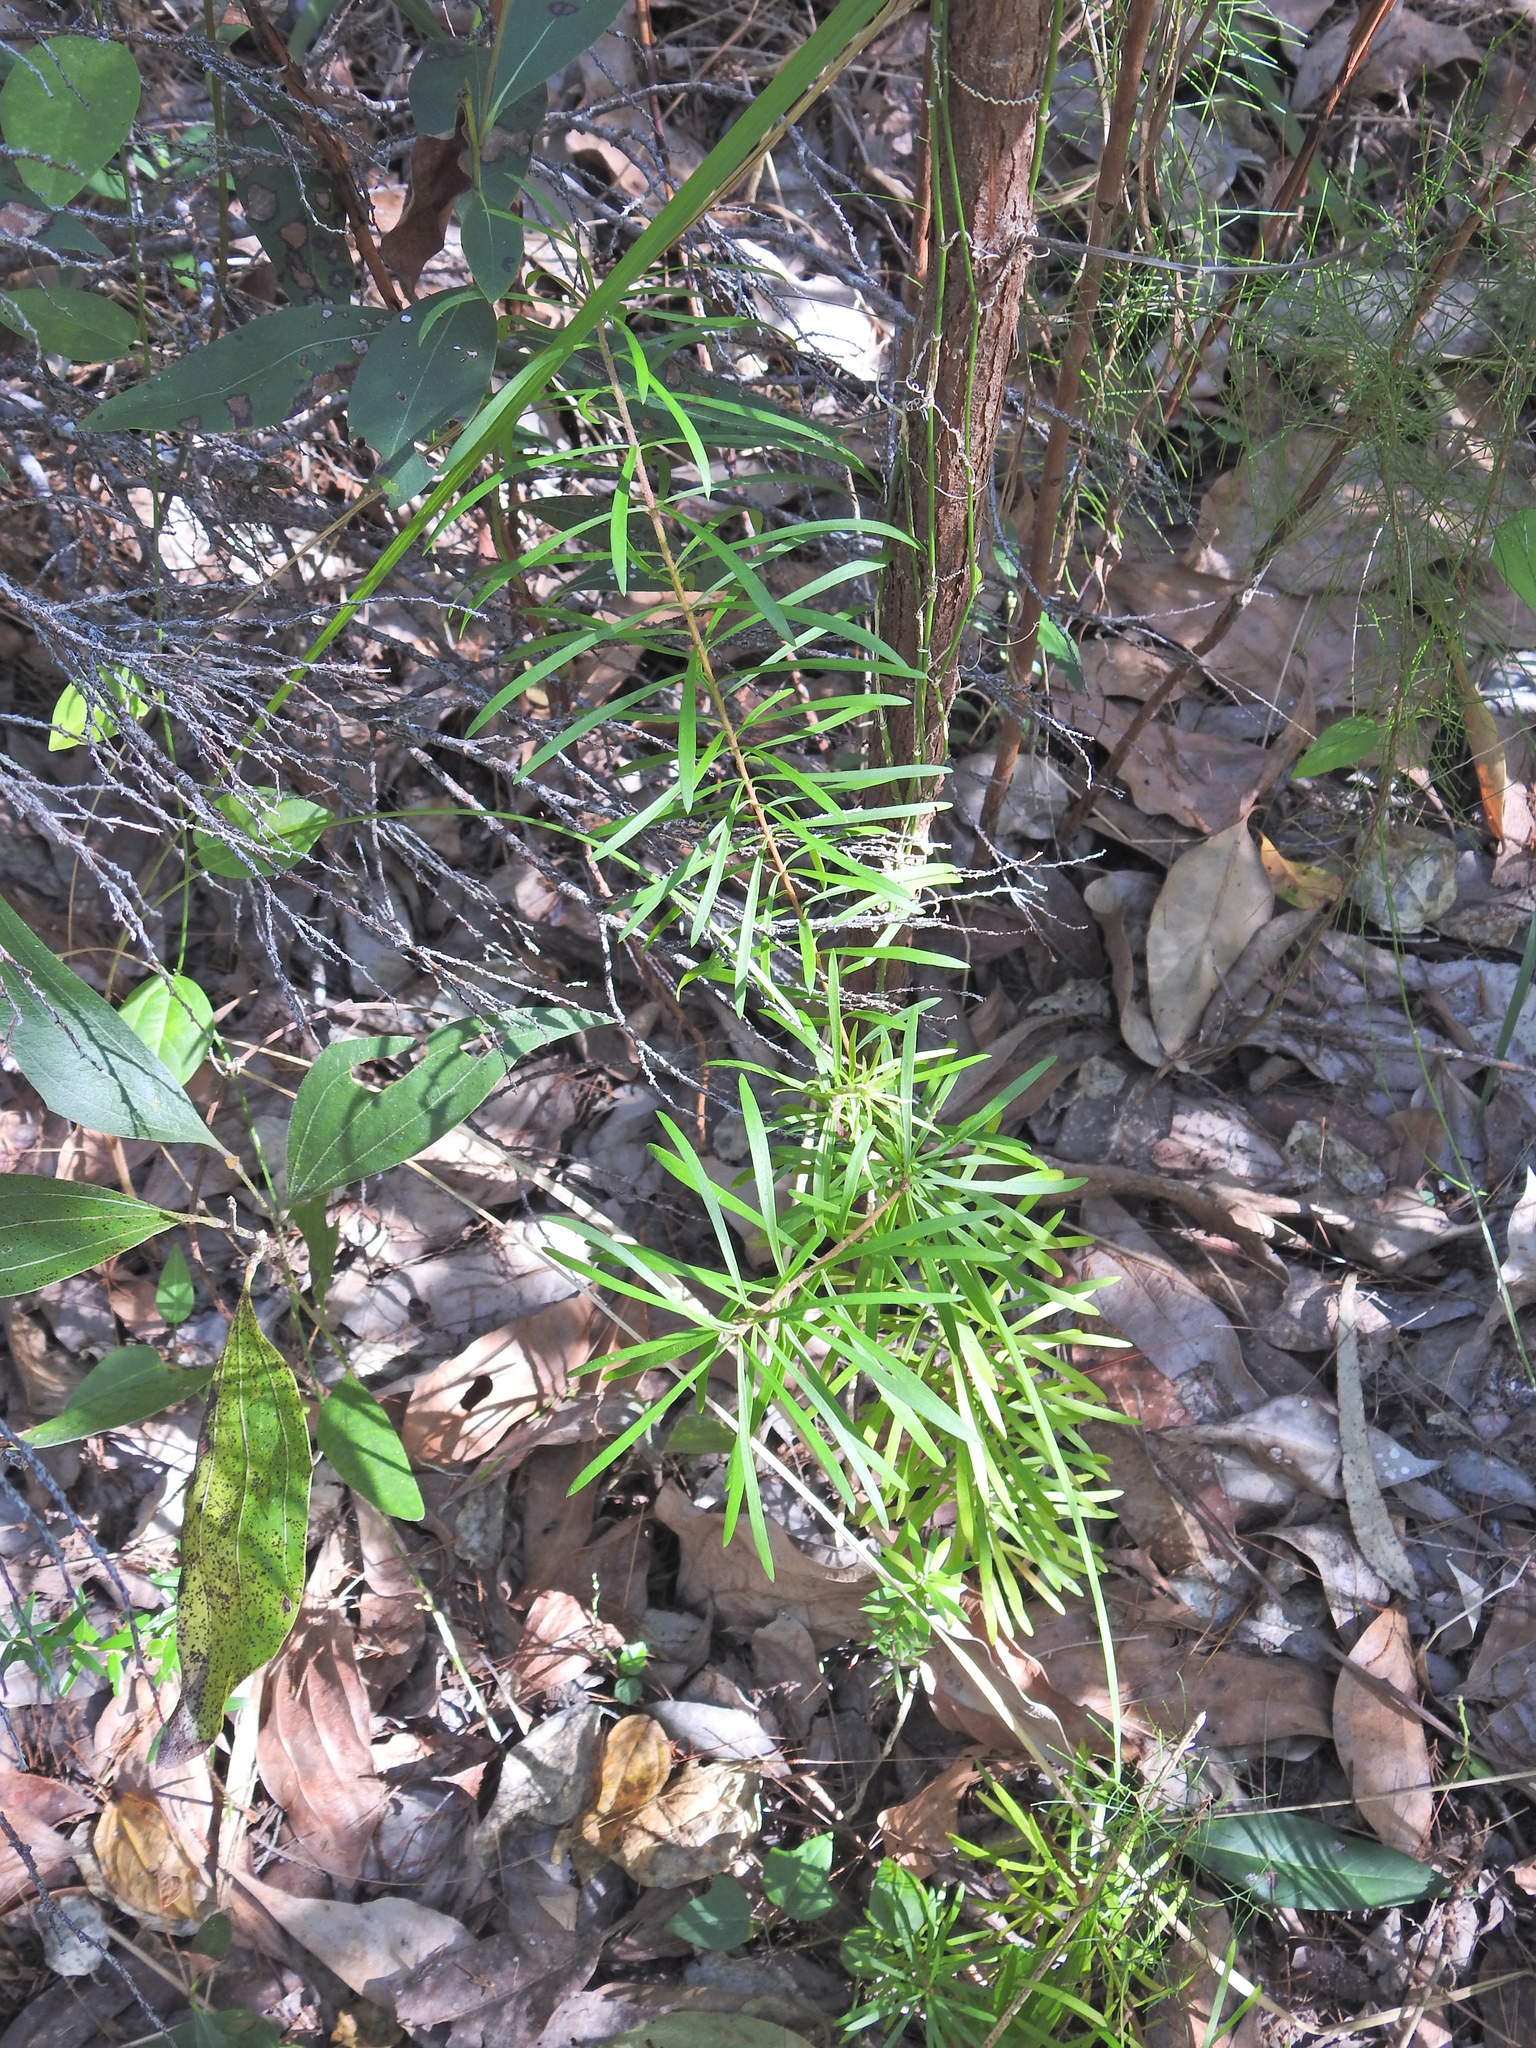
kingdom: Plantae
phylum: Tracheophyta
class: Magnoliopsida
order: Proteales
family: Proteaceae
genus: Persoonia
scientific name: Persoonia virgata
